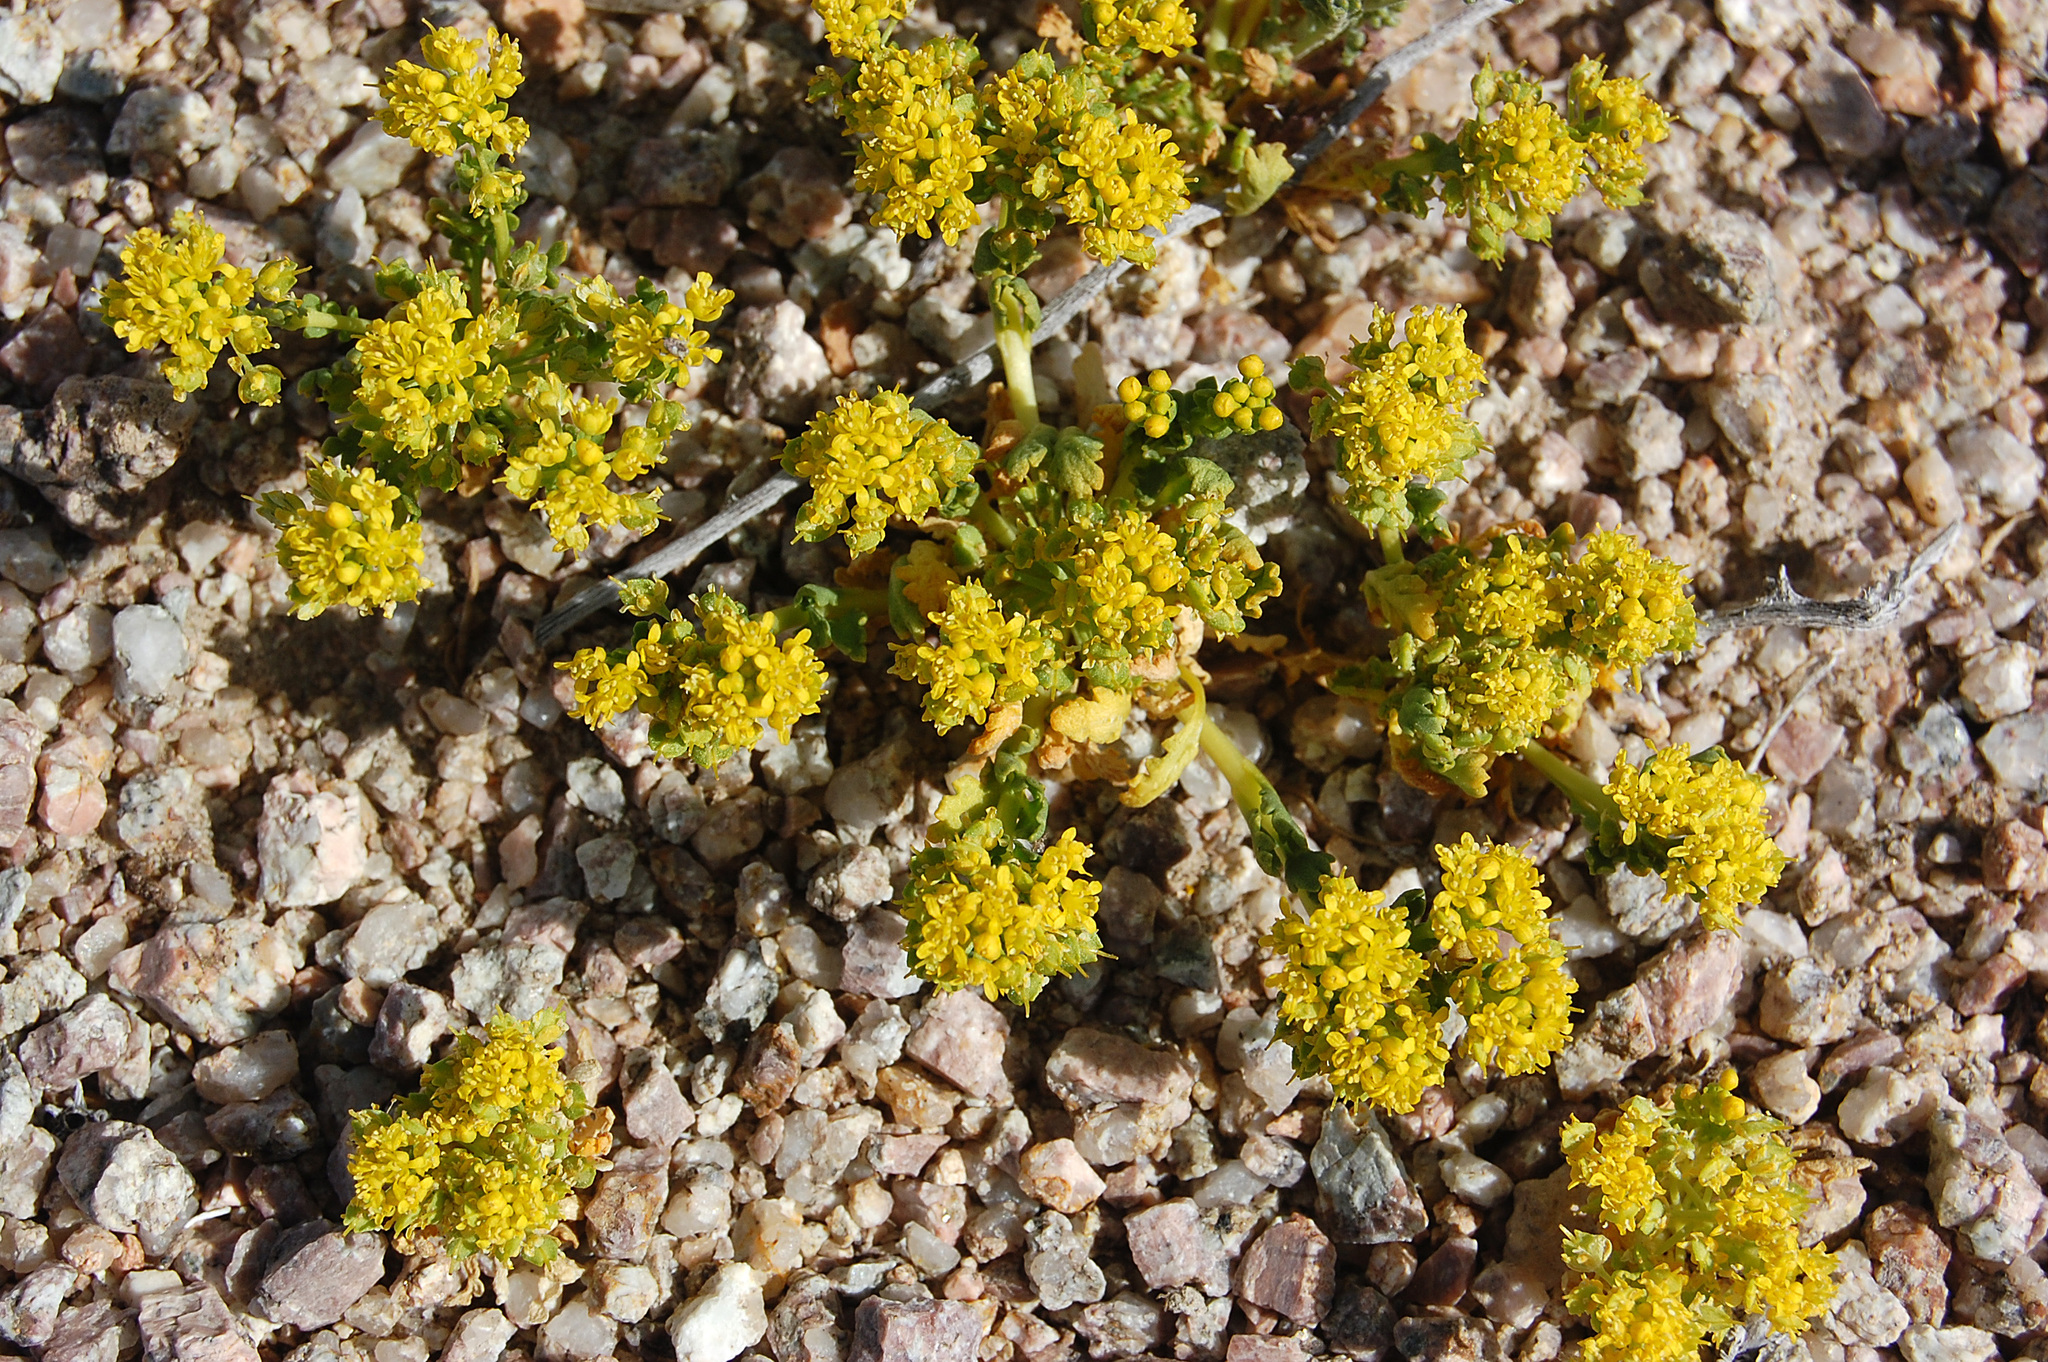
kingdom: Plantae
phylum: Tracheophyta
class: Magnoliopsida
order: Brassicales
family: Brassicaceae
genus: Lepidium
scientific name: Lepidium flavum
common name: Yellow pepperwort
